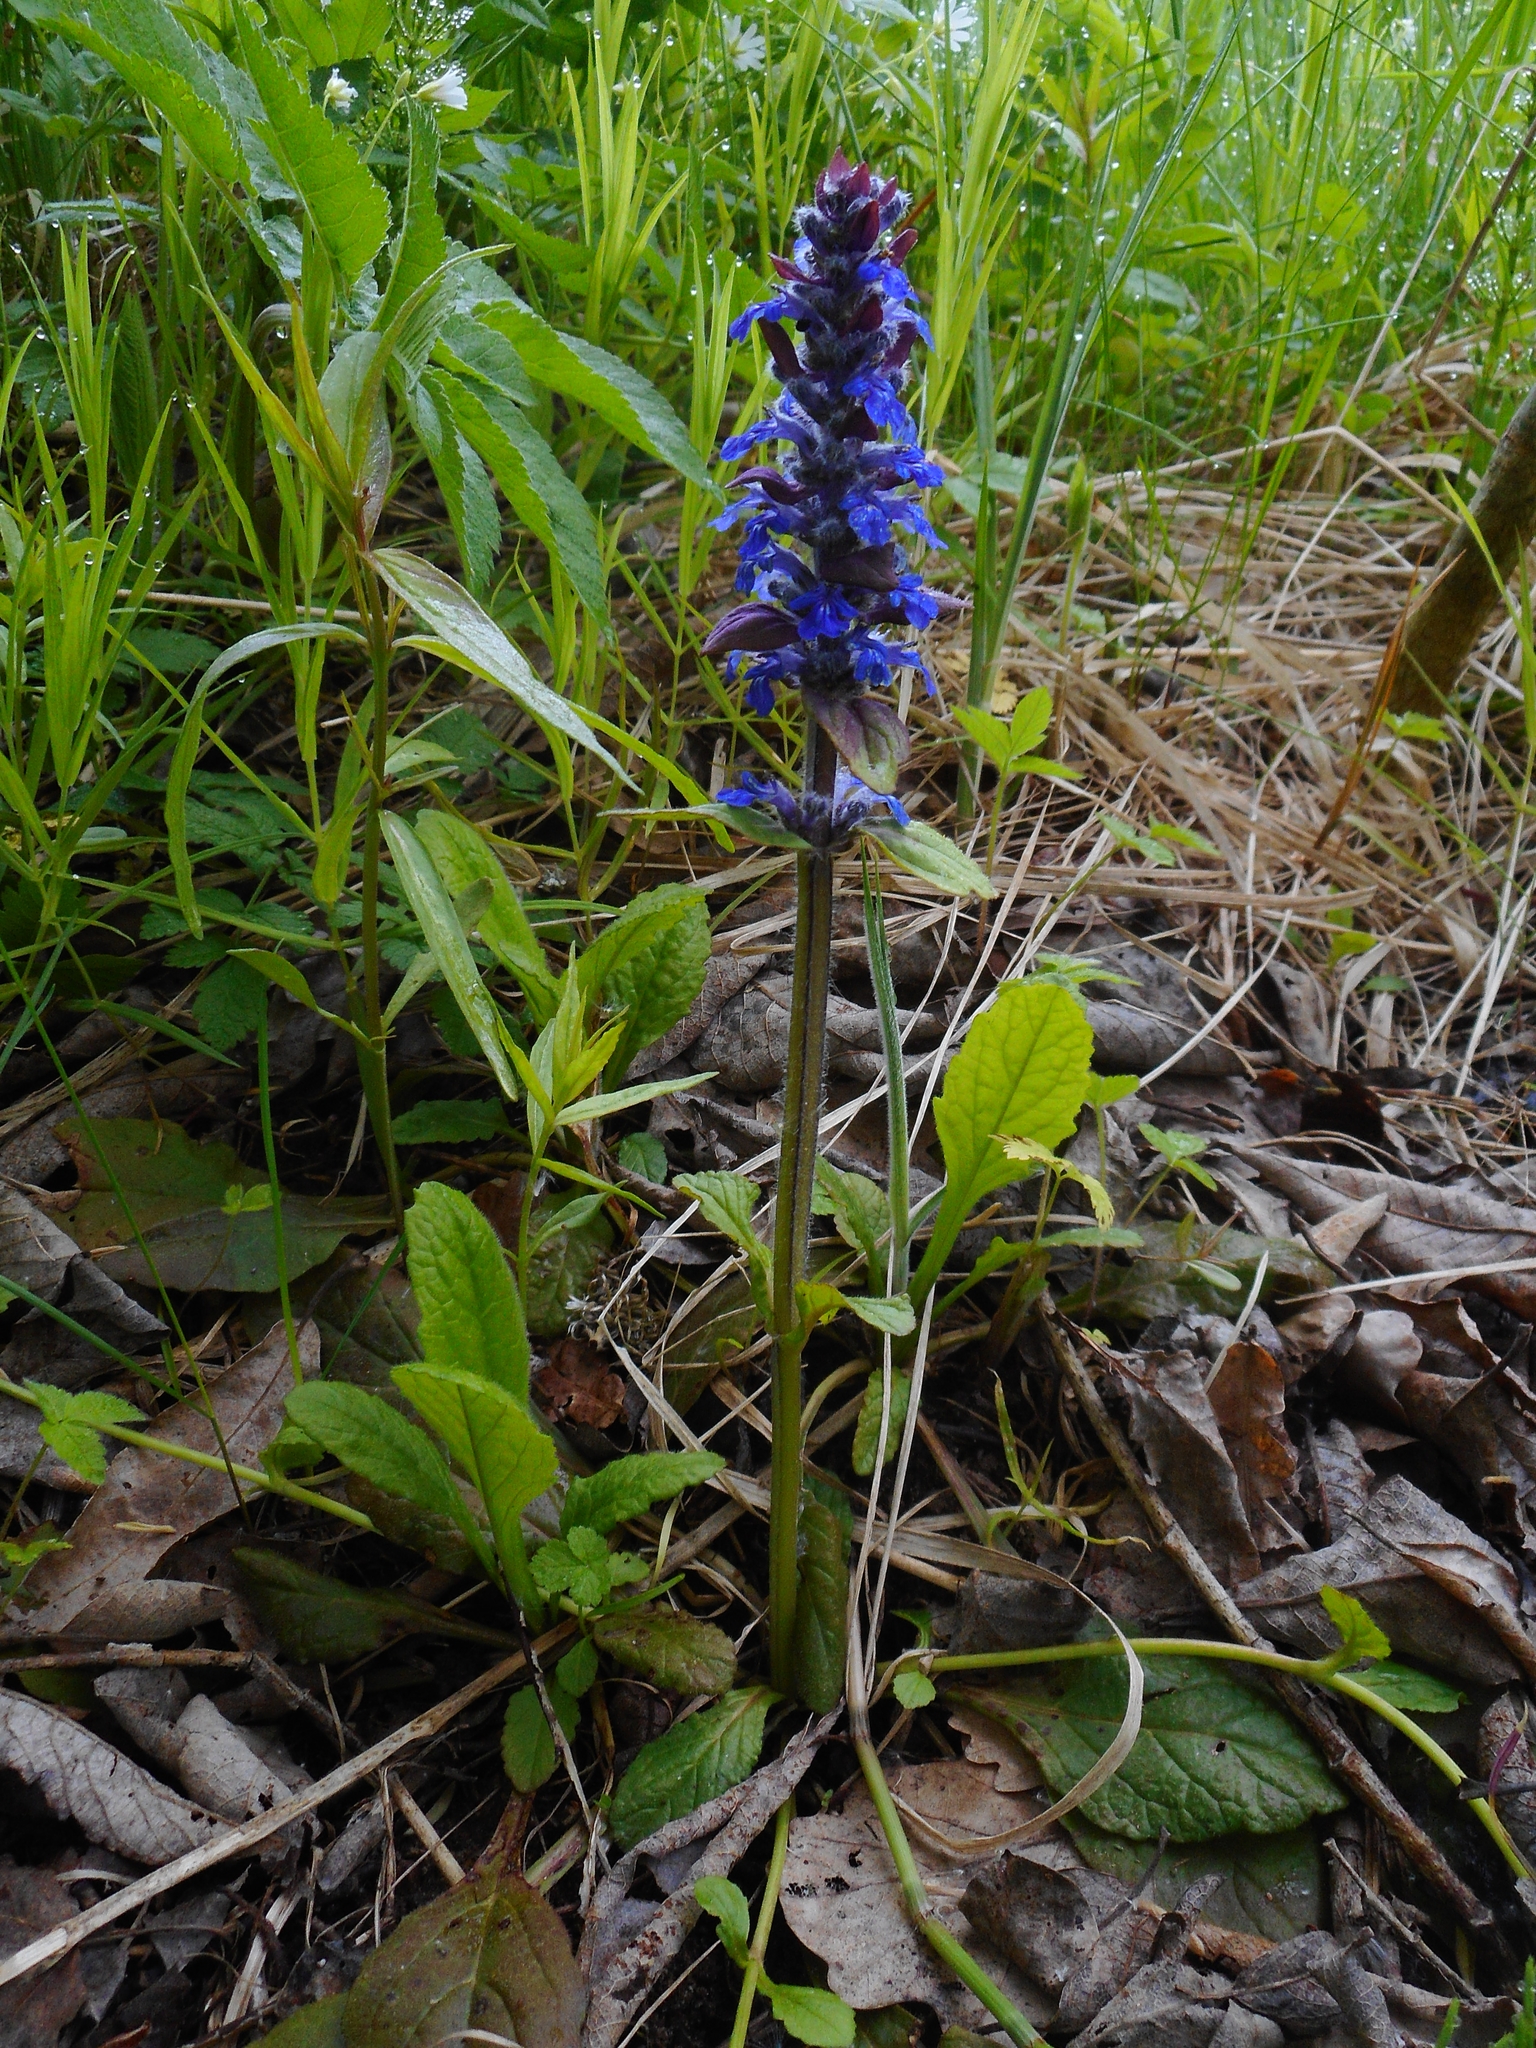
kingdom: Plantae
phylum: Tracheophyta
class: Magnoliopsida
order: Lamiales
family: Lamiaceae
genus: Ajuga
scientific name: Ajuga reptans
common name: Bugle
